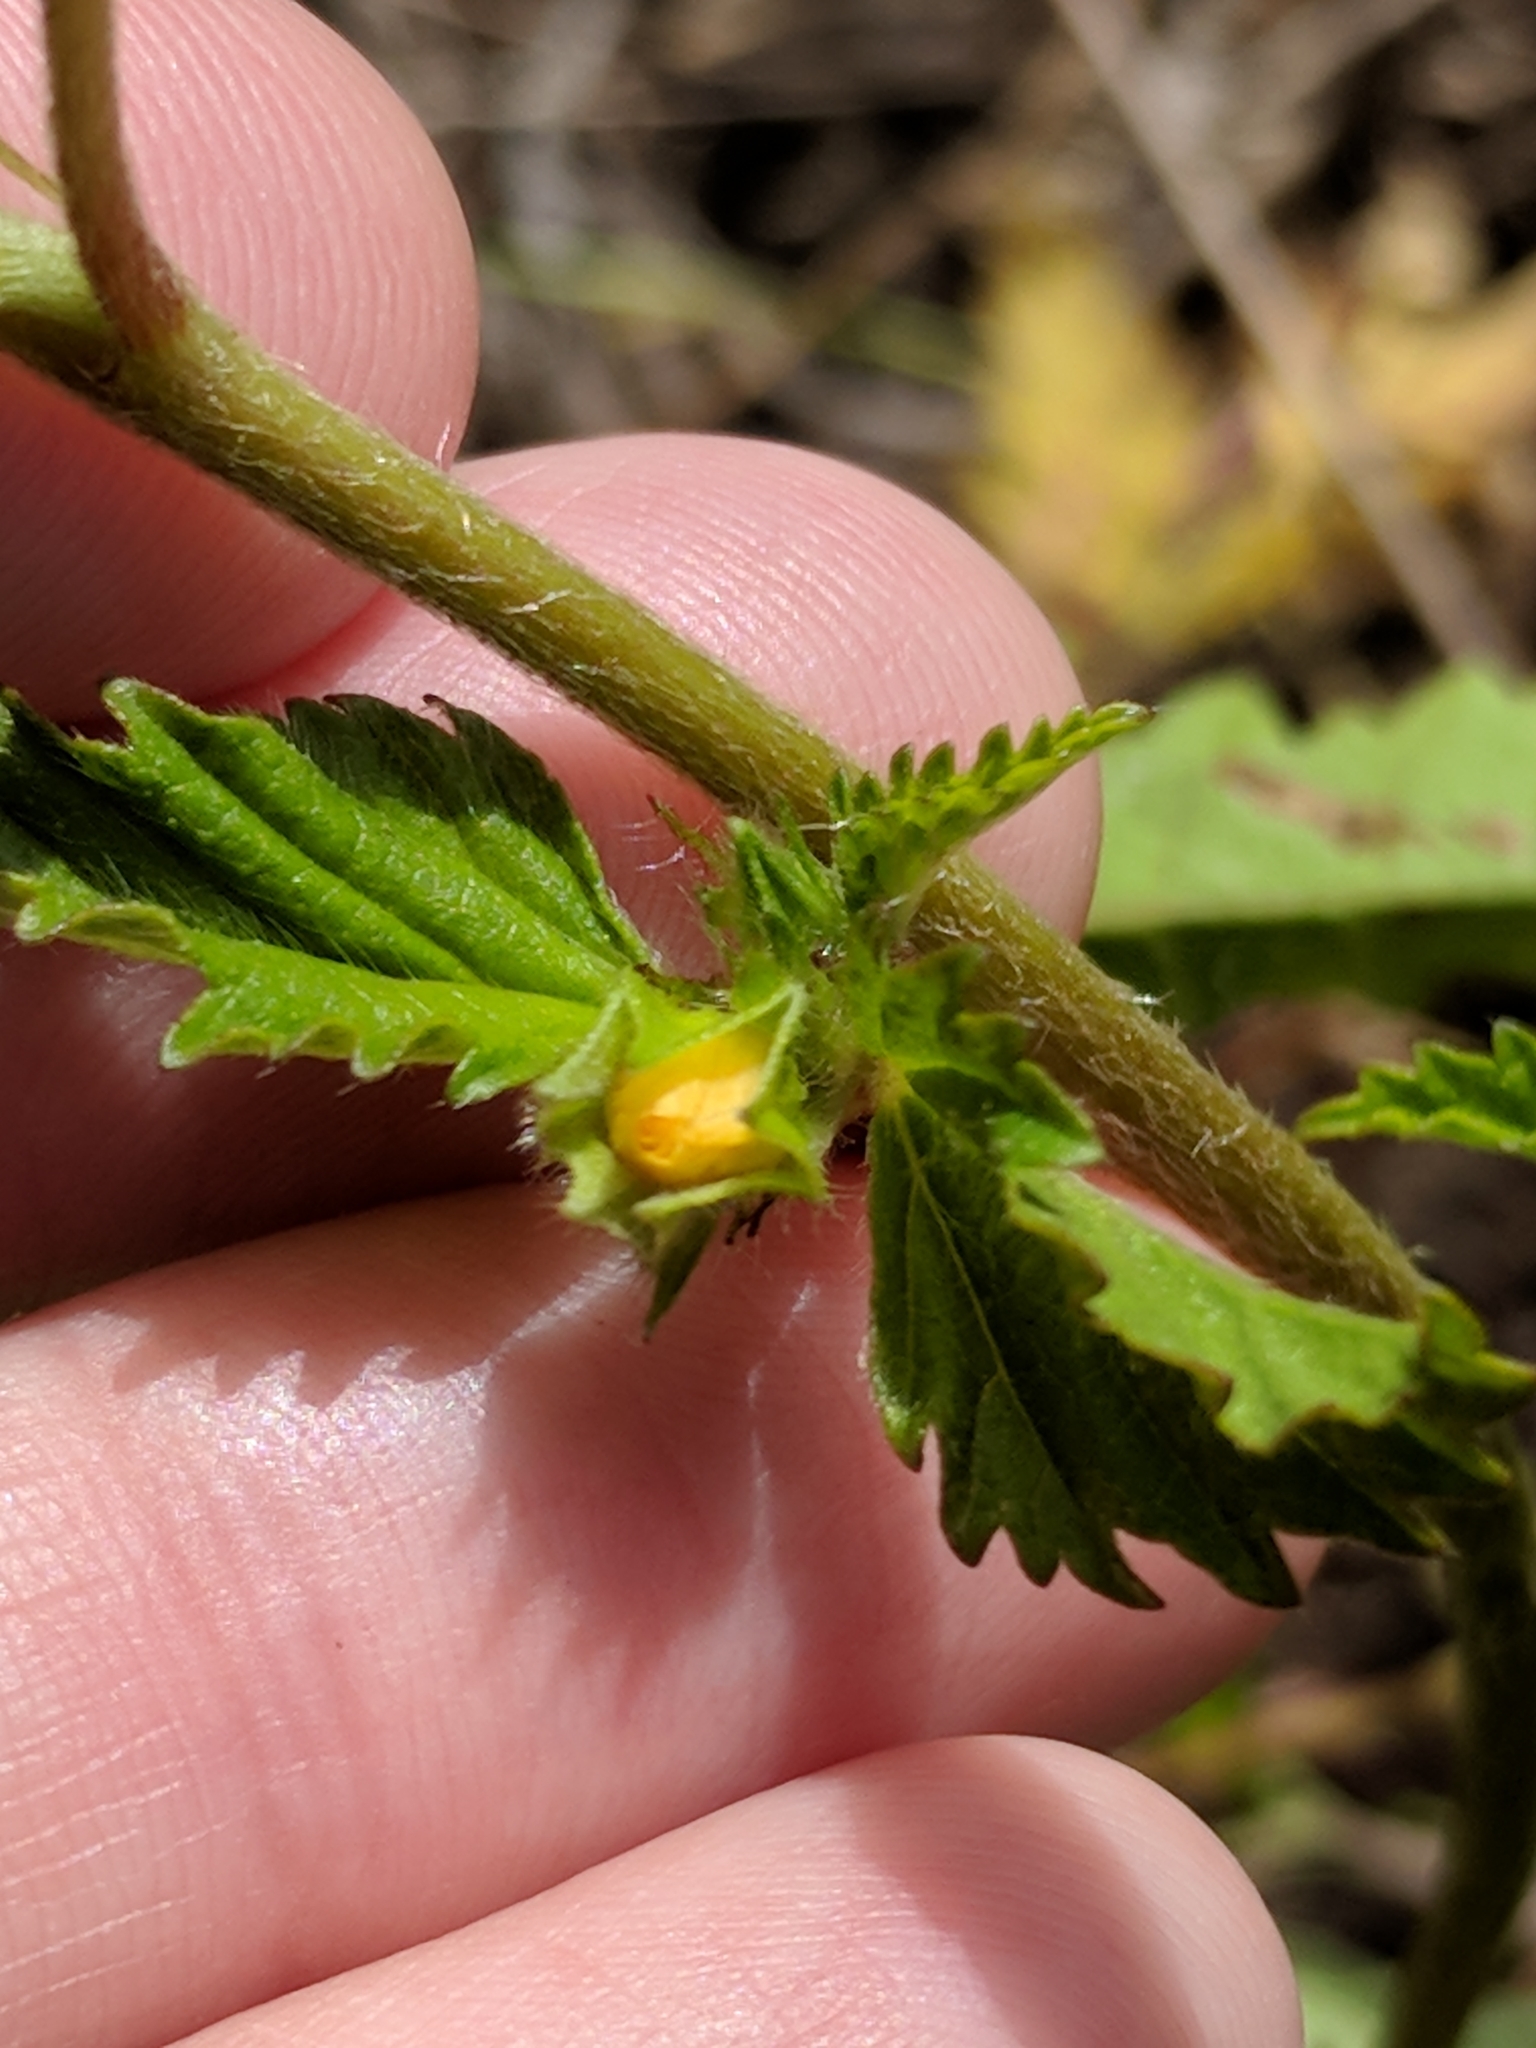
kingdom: Plantae
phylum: Tracheophyta
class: Magnoliopsida
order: Malvales
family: Malvaceae
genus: Malvastrum
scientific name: Malvastrum coromandelianum
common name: Threelobe false mallow
